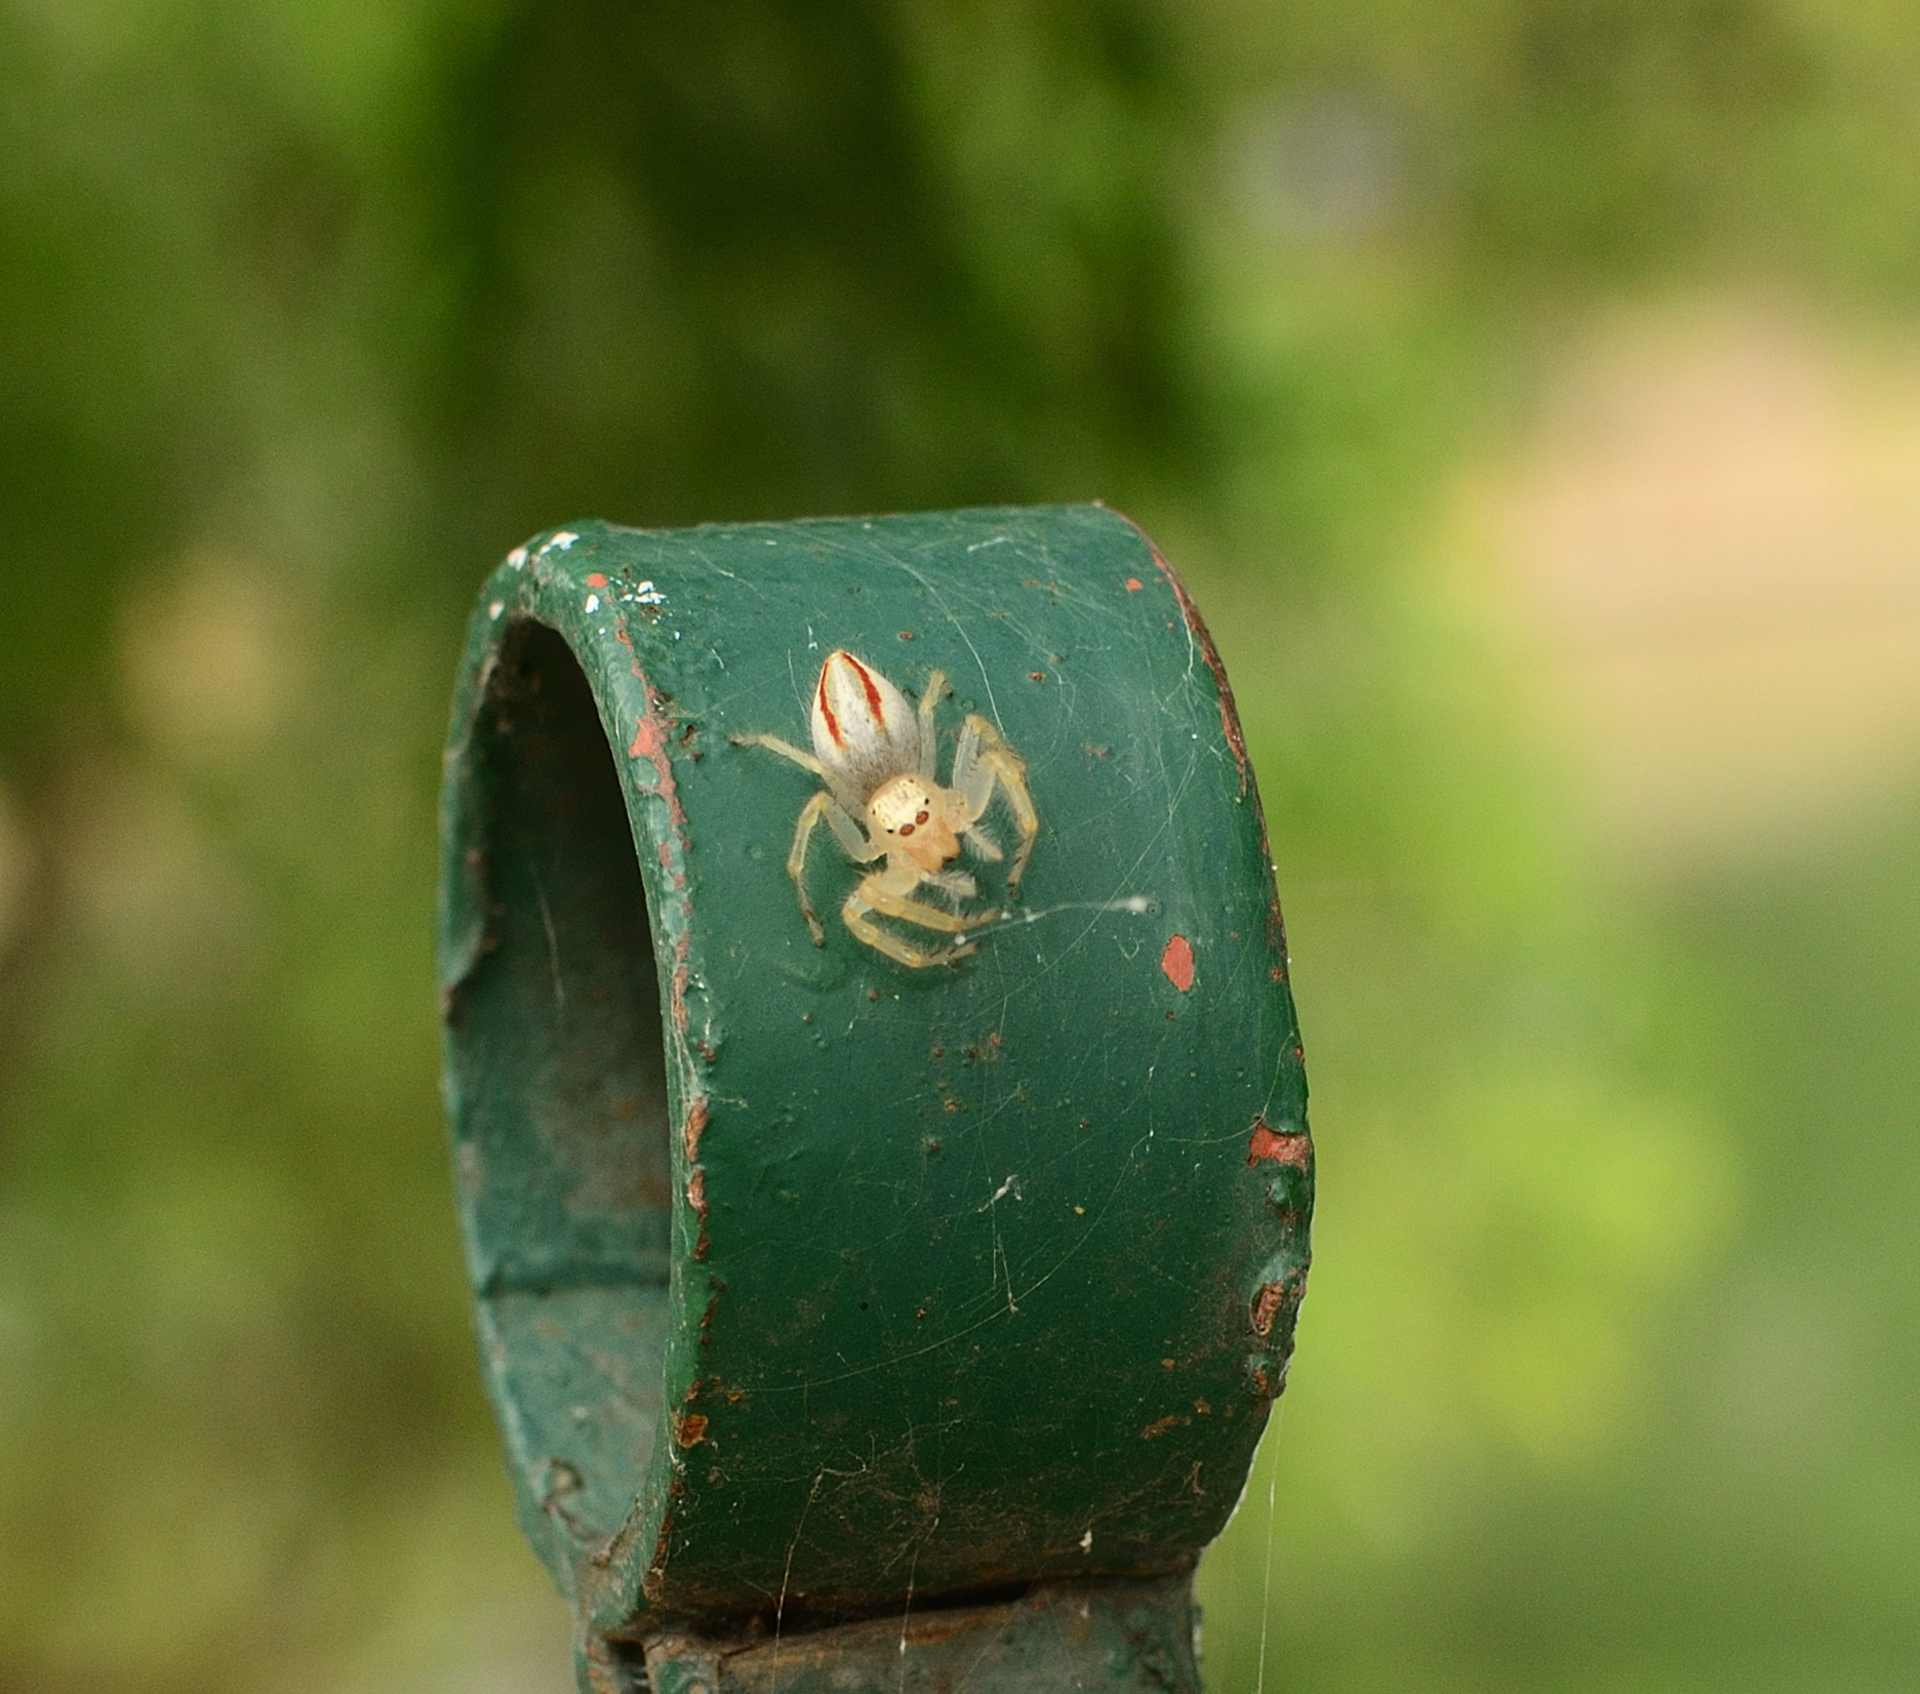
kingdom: Animalia
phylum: Arthropoda
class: Arachnida
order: Araneae
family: Salticidae
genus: Telamonia
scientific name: Telamonia dimidiata
